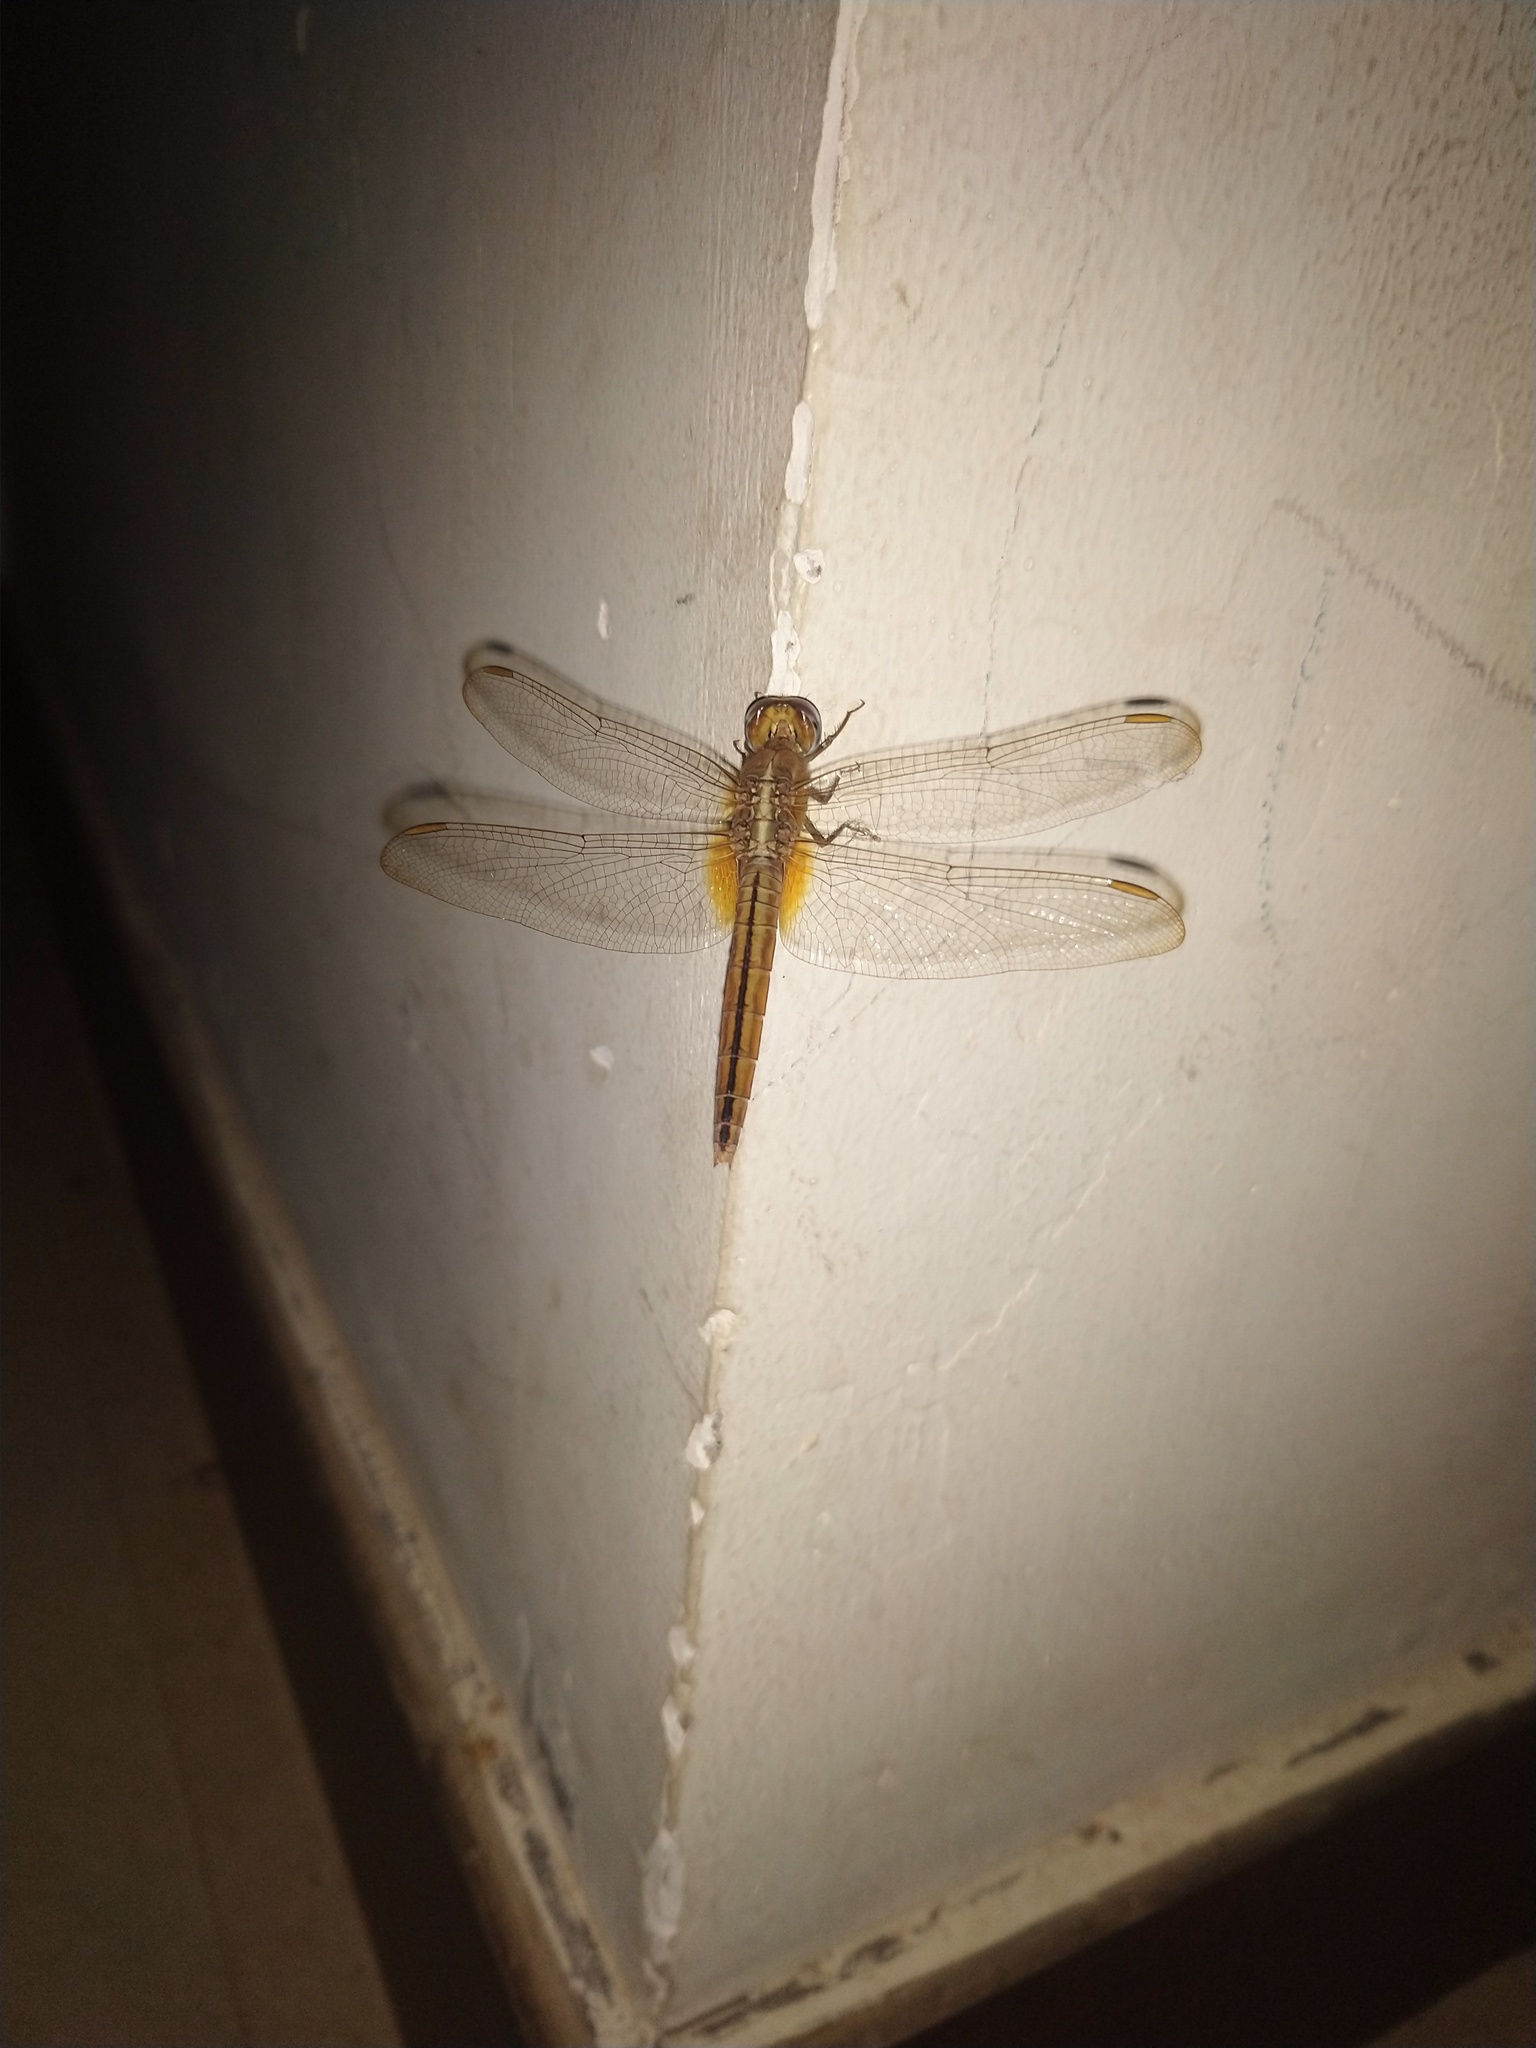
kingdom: Animalia
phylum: Arthropoda
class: Insecta
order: Odonata
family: Libellulidae
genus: Crocothemis
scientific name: Crocothemis servilia
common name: Scarlet skimmer
